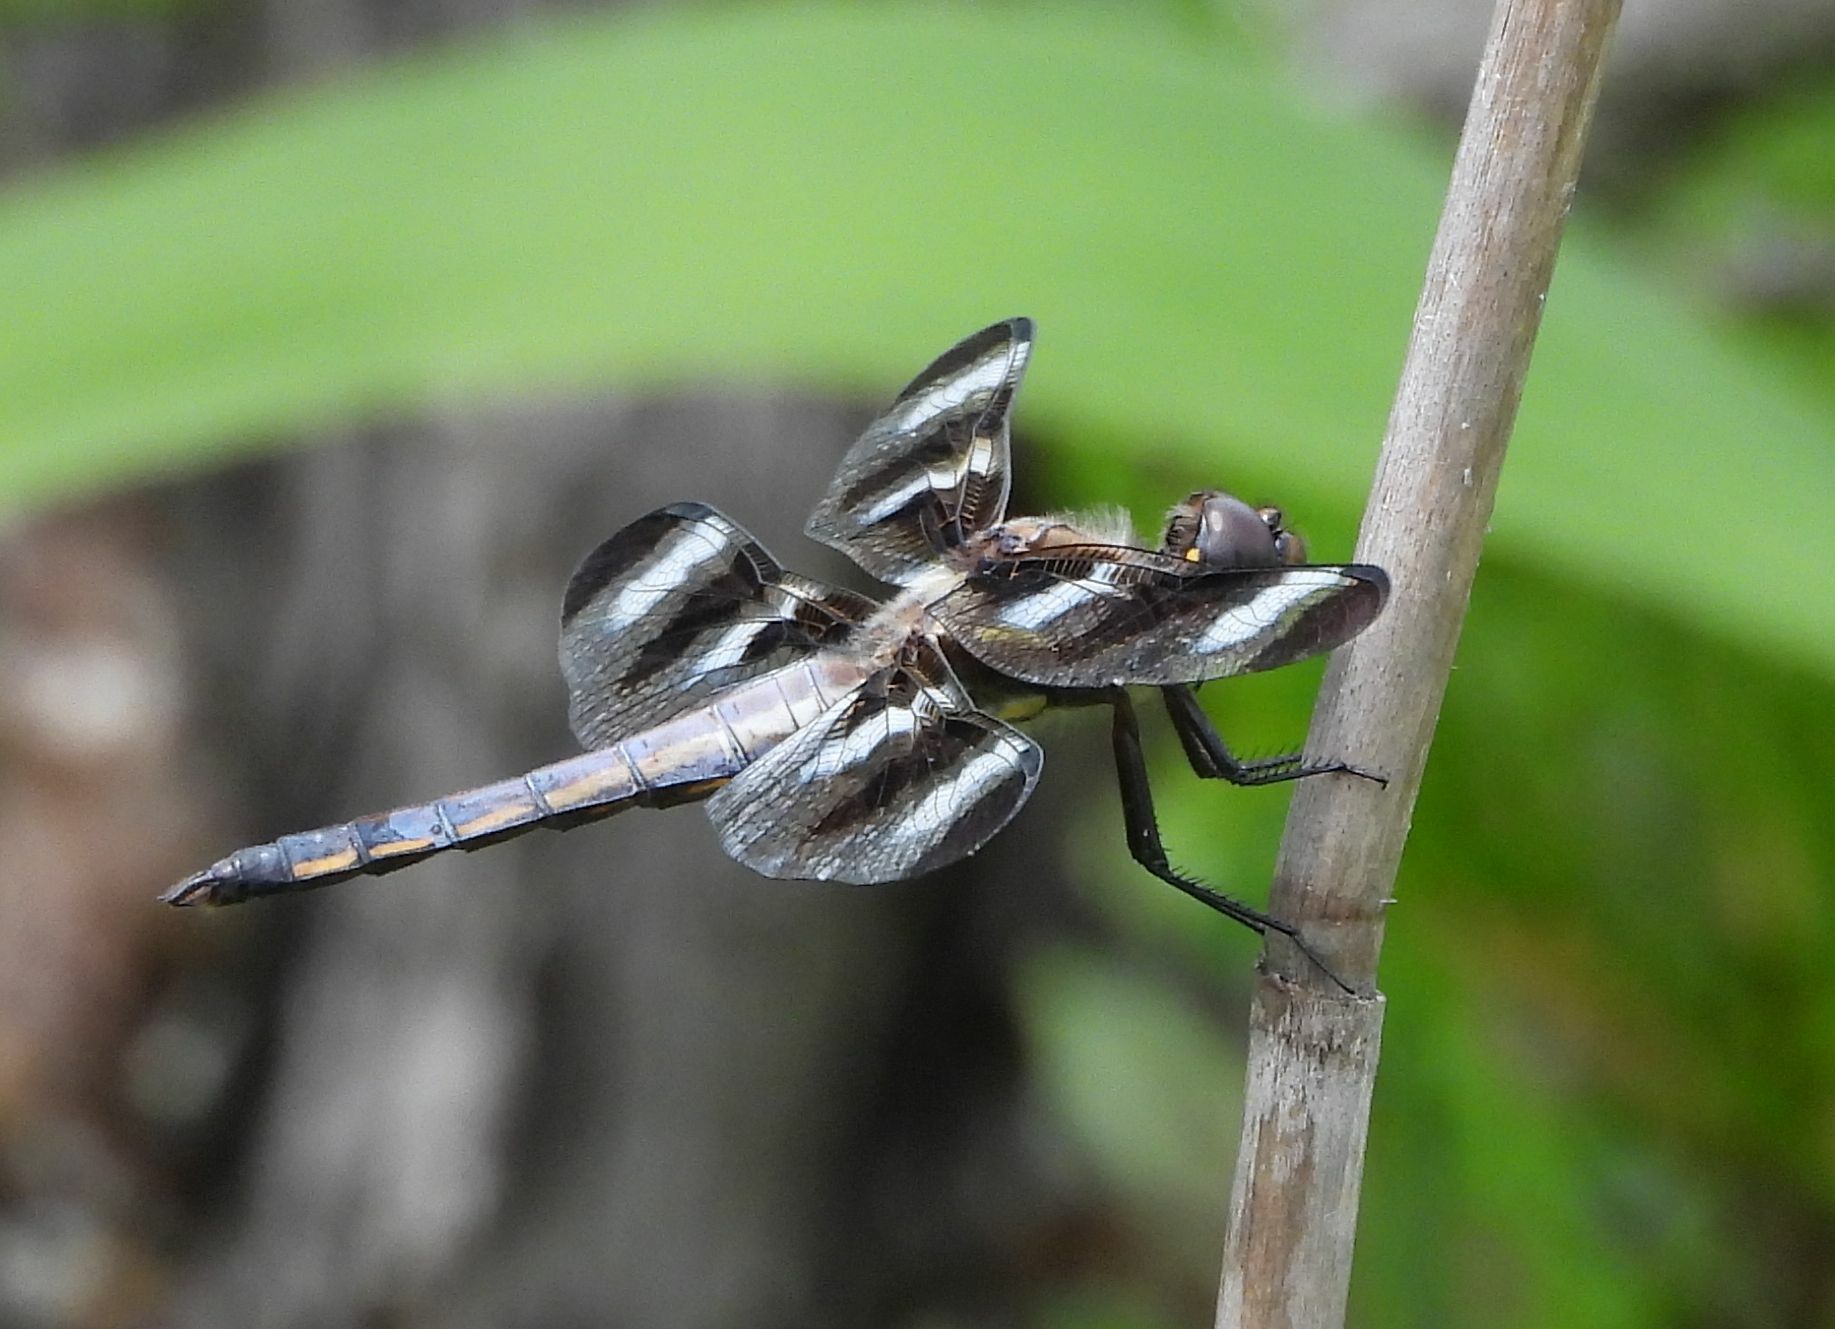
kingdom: Animalia
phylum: Arthropoda
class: Insecta
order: Odonata
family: Libellulidae
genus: Libellula
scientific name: Libellula pulchella
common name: Twelve-spotted skimmer
